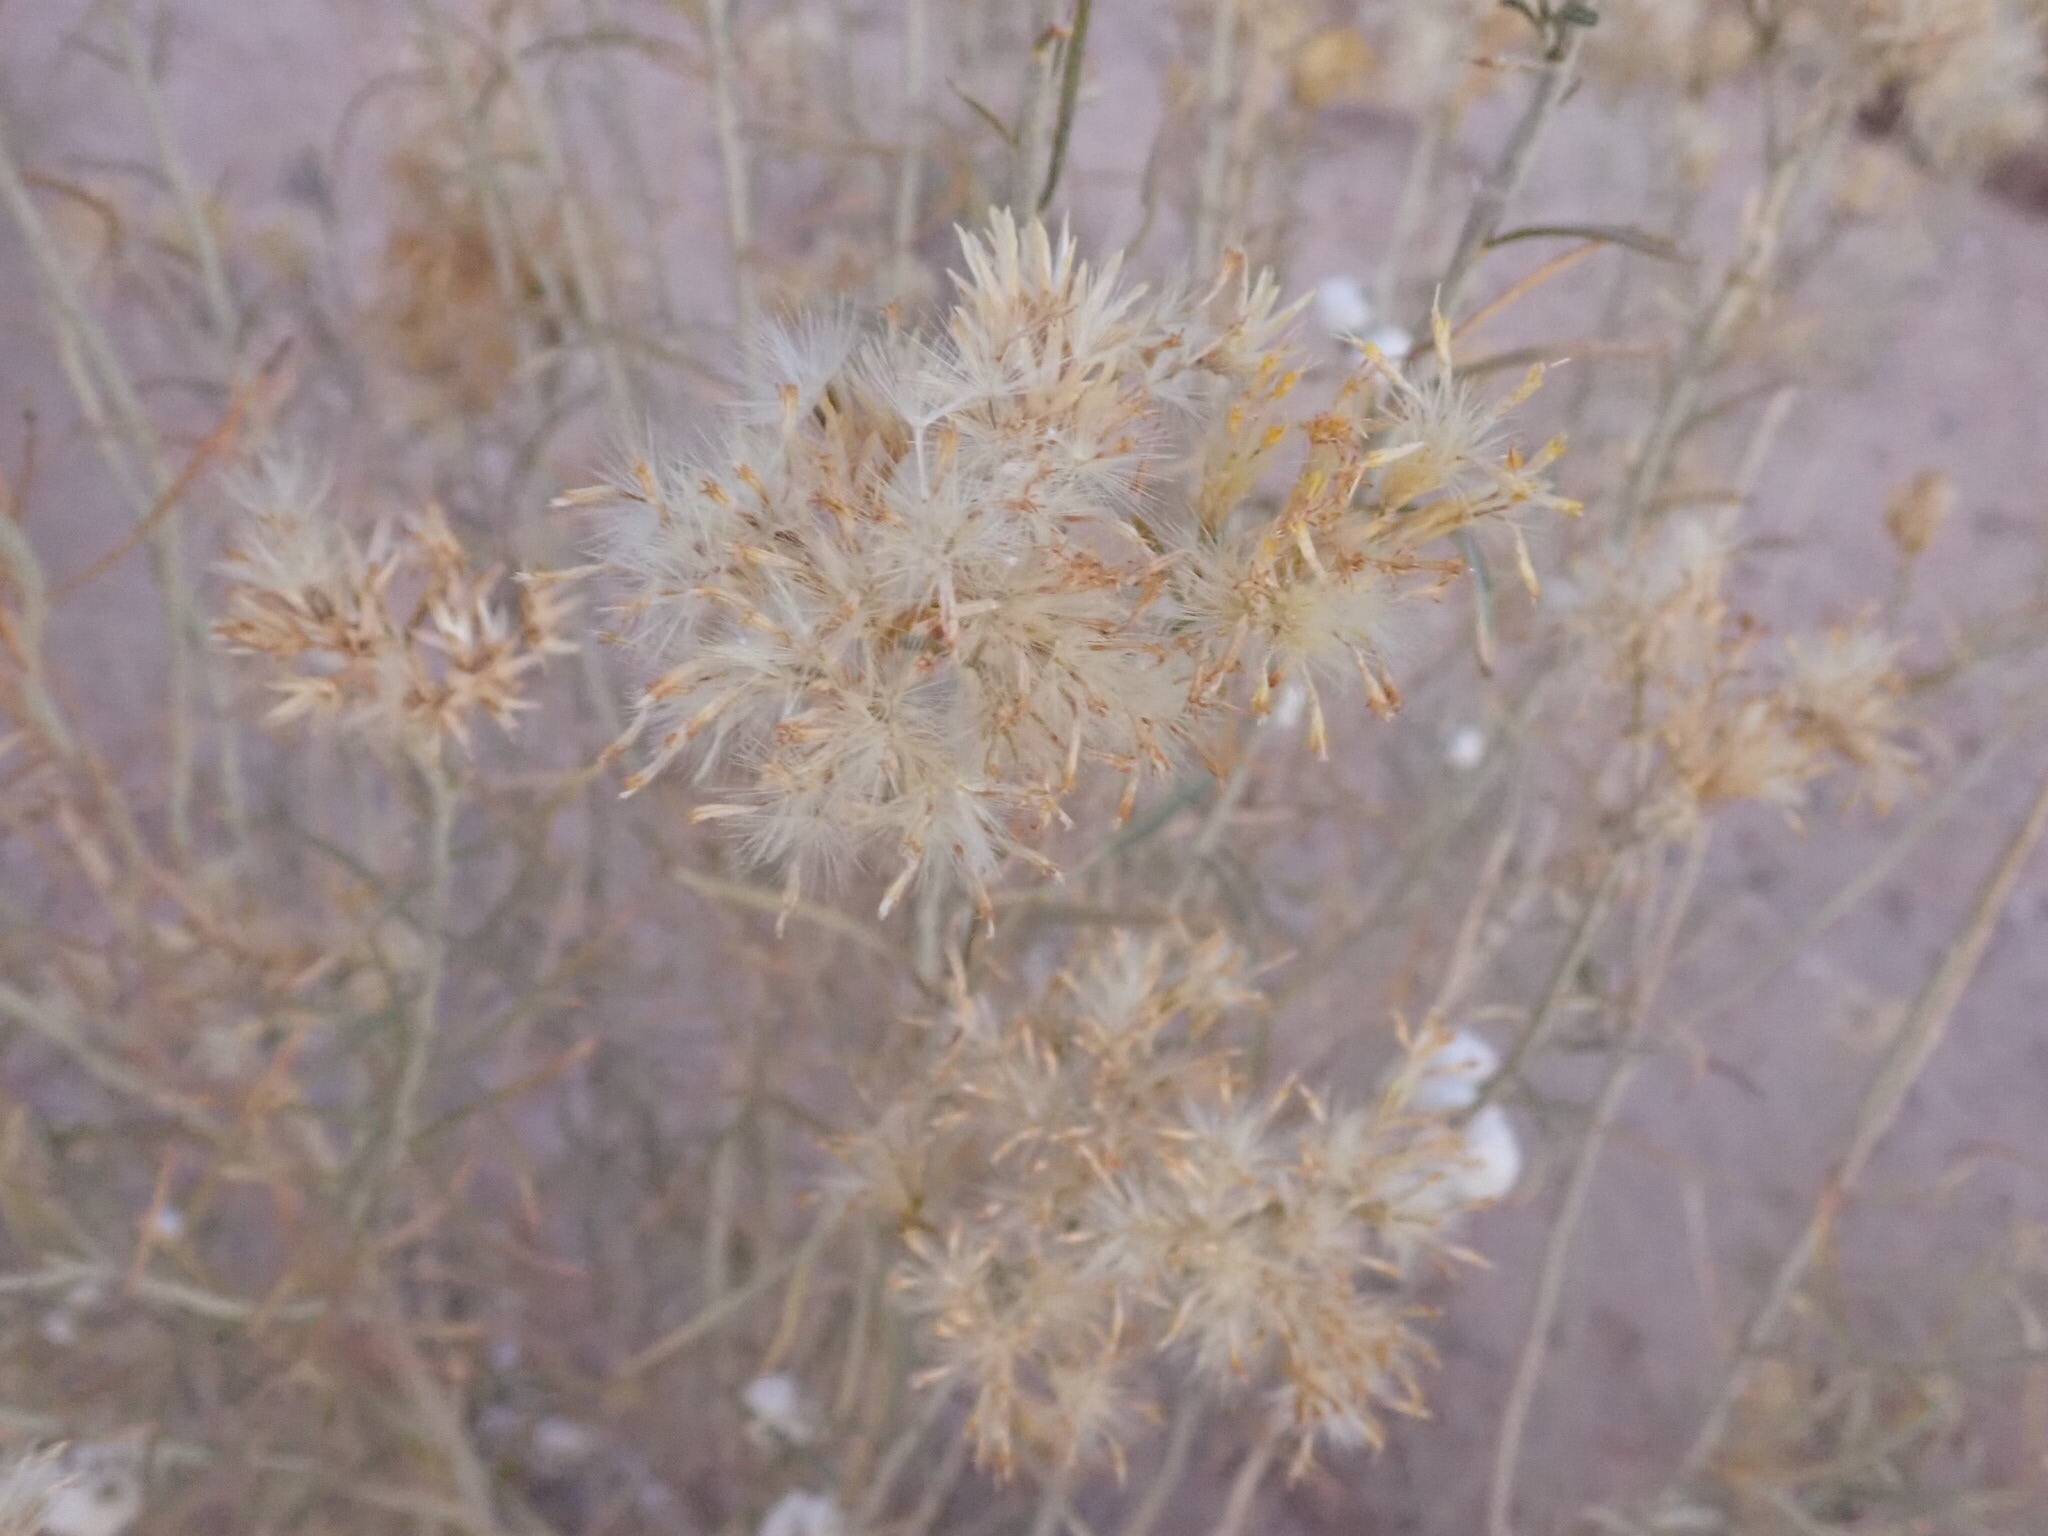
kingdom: Animalia
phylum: Arthropoda
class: Insecta
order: Diptera
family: Tephritidae
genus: Aciurina
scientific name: Aciurina bigeloviae
